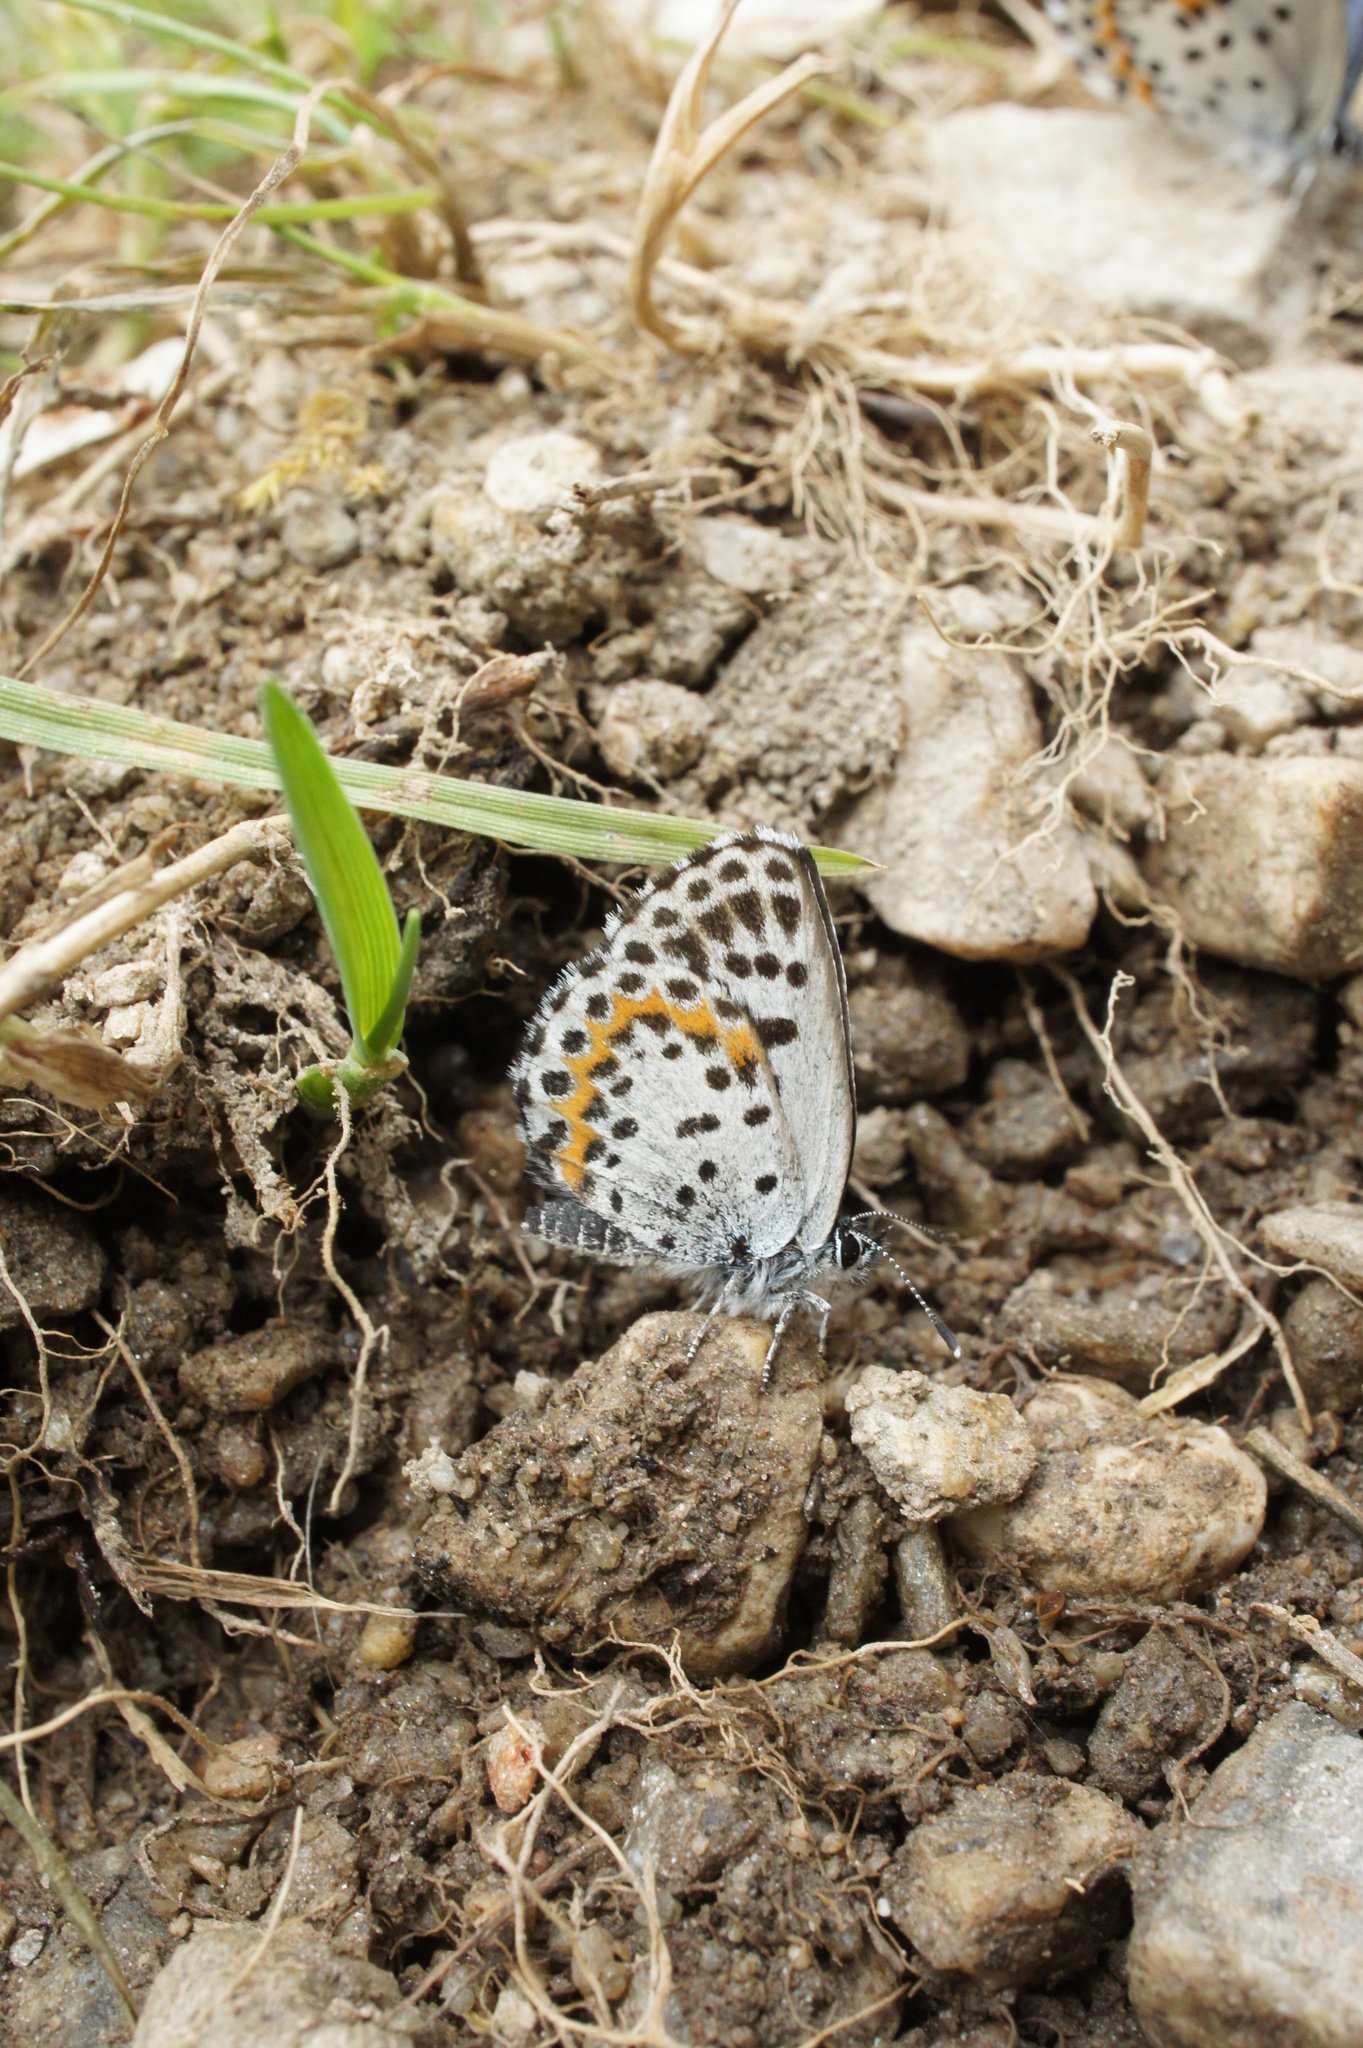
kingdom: Animalia
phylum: Arthropoda
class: Insecta
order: Lepidoptera
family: Lycaenidae
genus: Scolitantides
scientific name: Scolitantides orion
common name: Chequered blue
